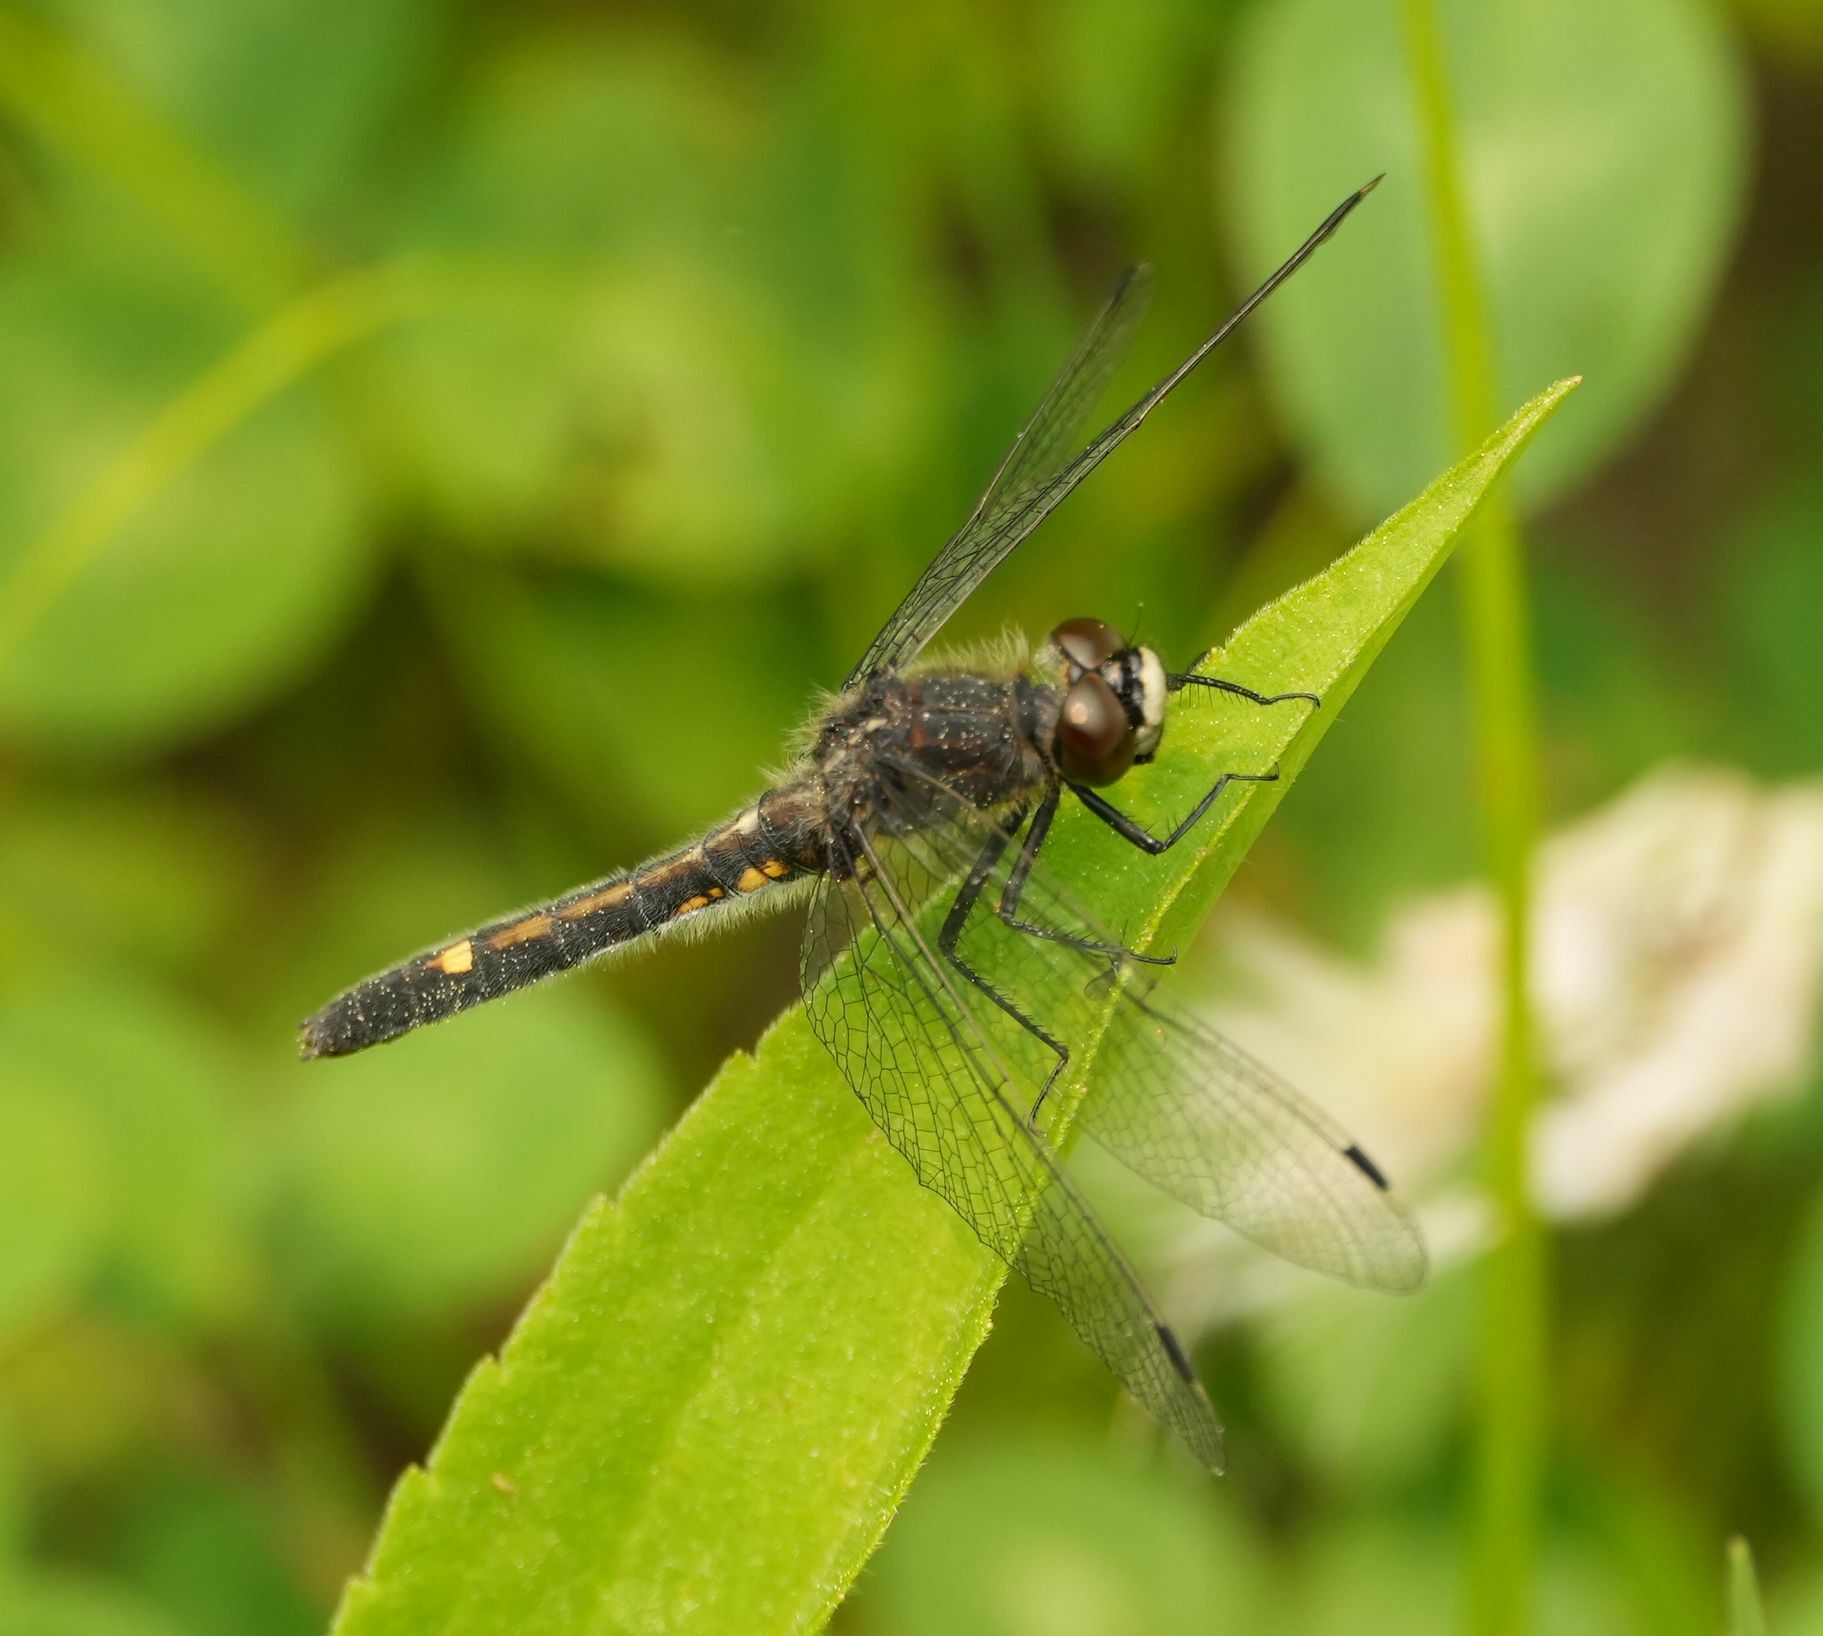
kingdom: Animalia
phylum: Arthropoda
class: Insecta
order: Odonata
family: Libellulidae
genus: Leucorrhinia
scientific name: Leucorrhinia intacta
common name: Dot-tailed whiteface
